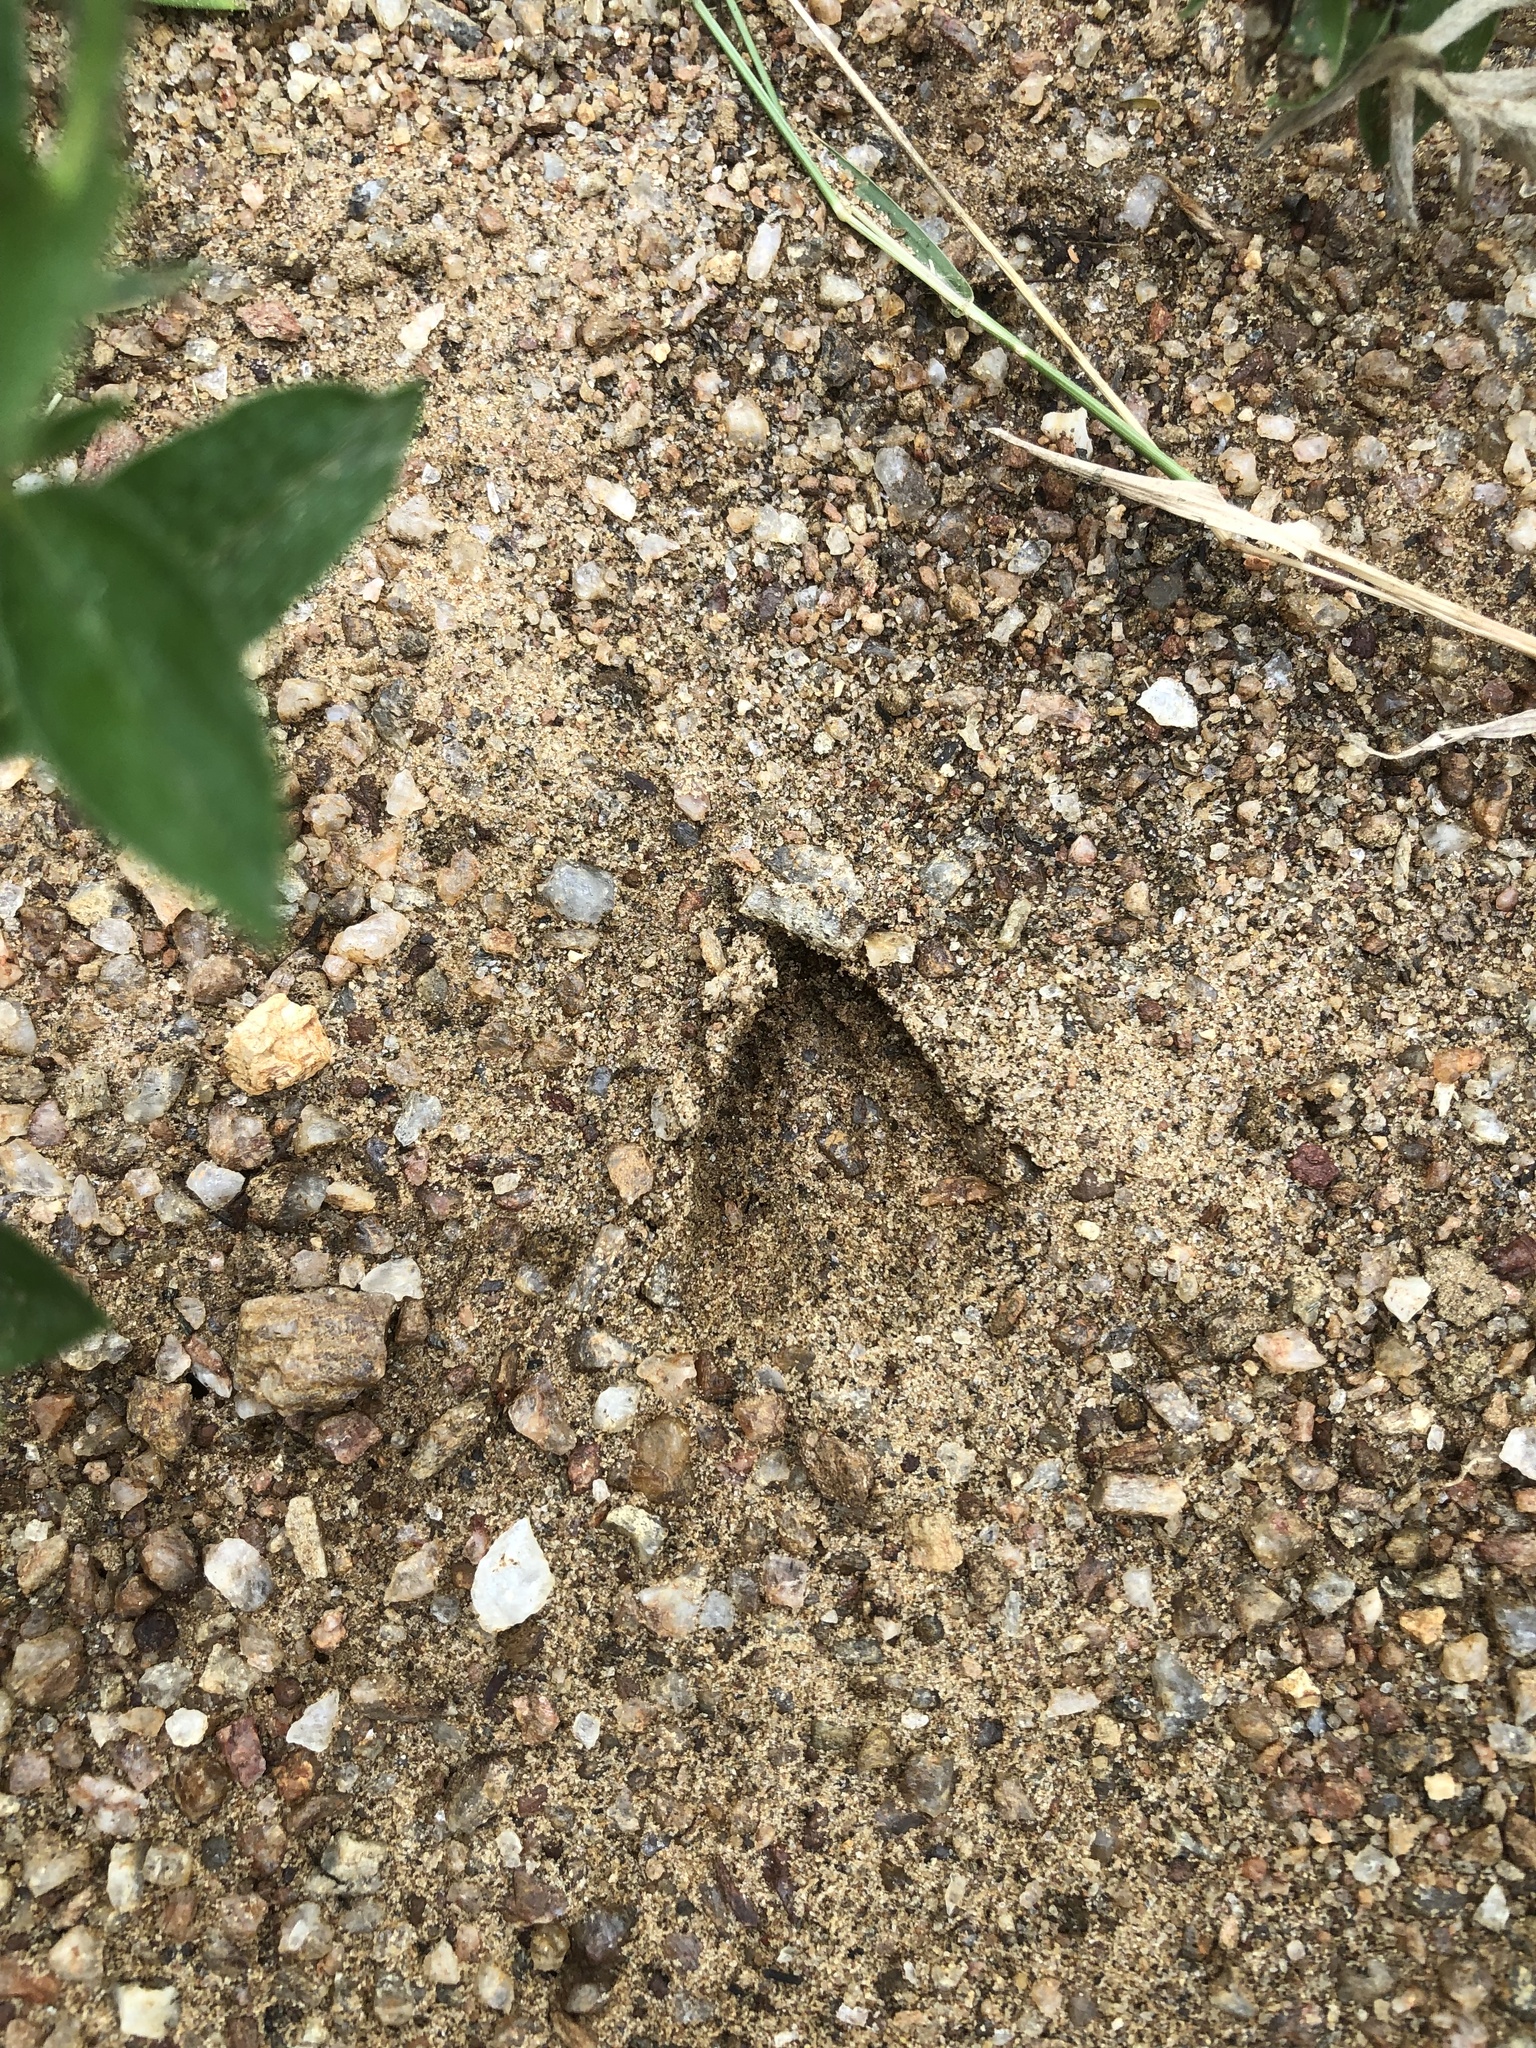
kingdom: Animalia
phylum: Chordata
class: Mammalia
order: Artiodactyla
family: Cervidae
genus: Mazama
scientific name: Mazama gouazoubira
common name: Gray brocket
